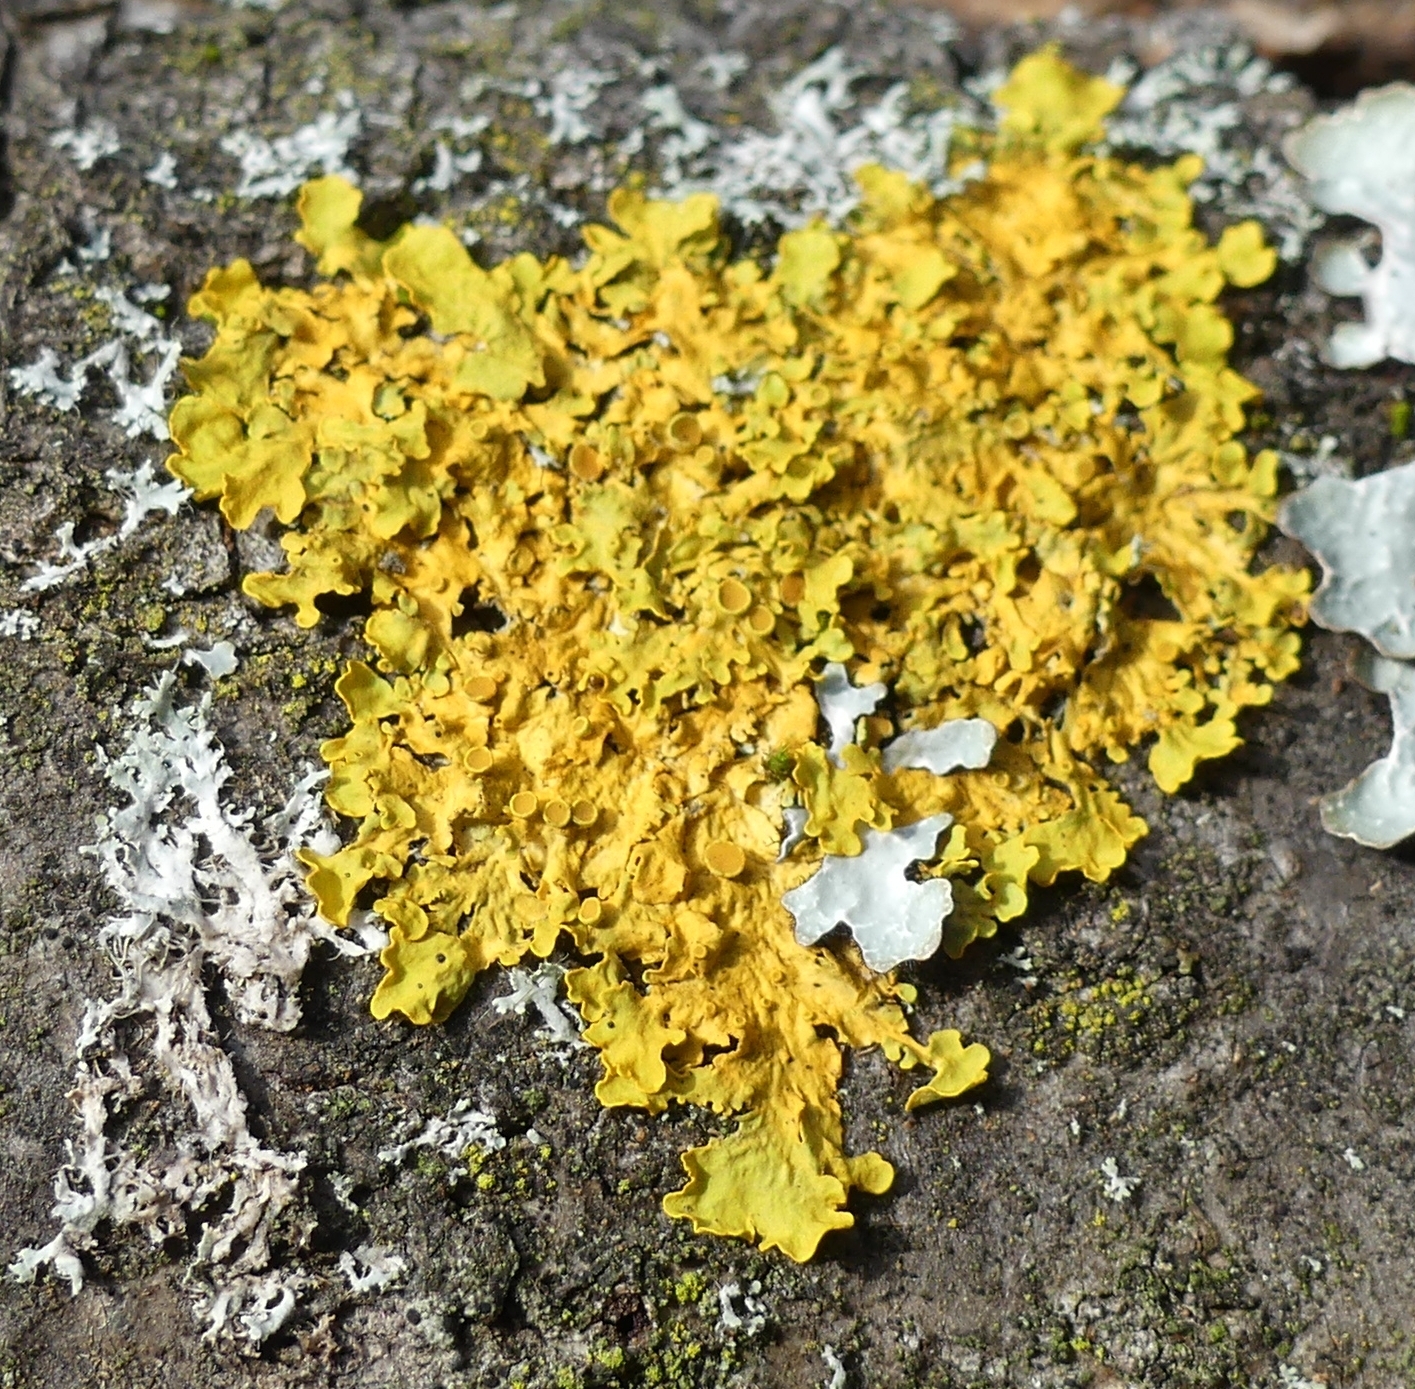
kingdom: Fungi
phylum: Ascomycota
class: Lecanoromycetes
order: Teloschistales
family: Teloschistaceae
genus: Xanthoria
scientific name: Xanthoria parietina
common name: Common orange lichen
